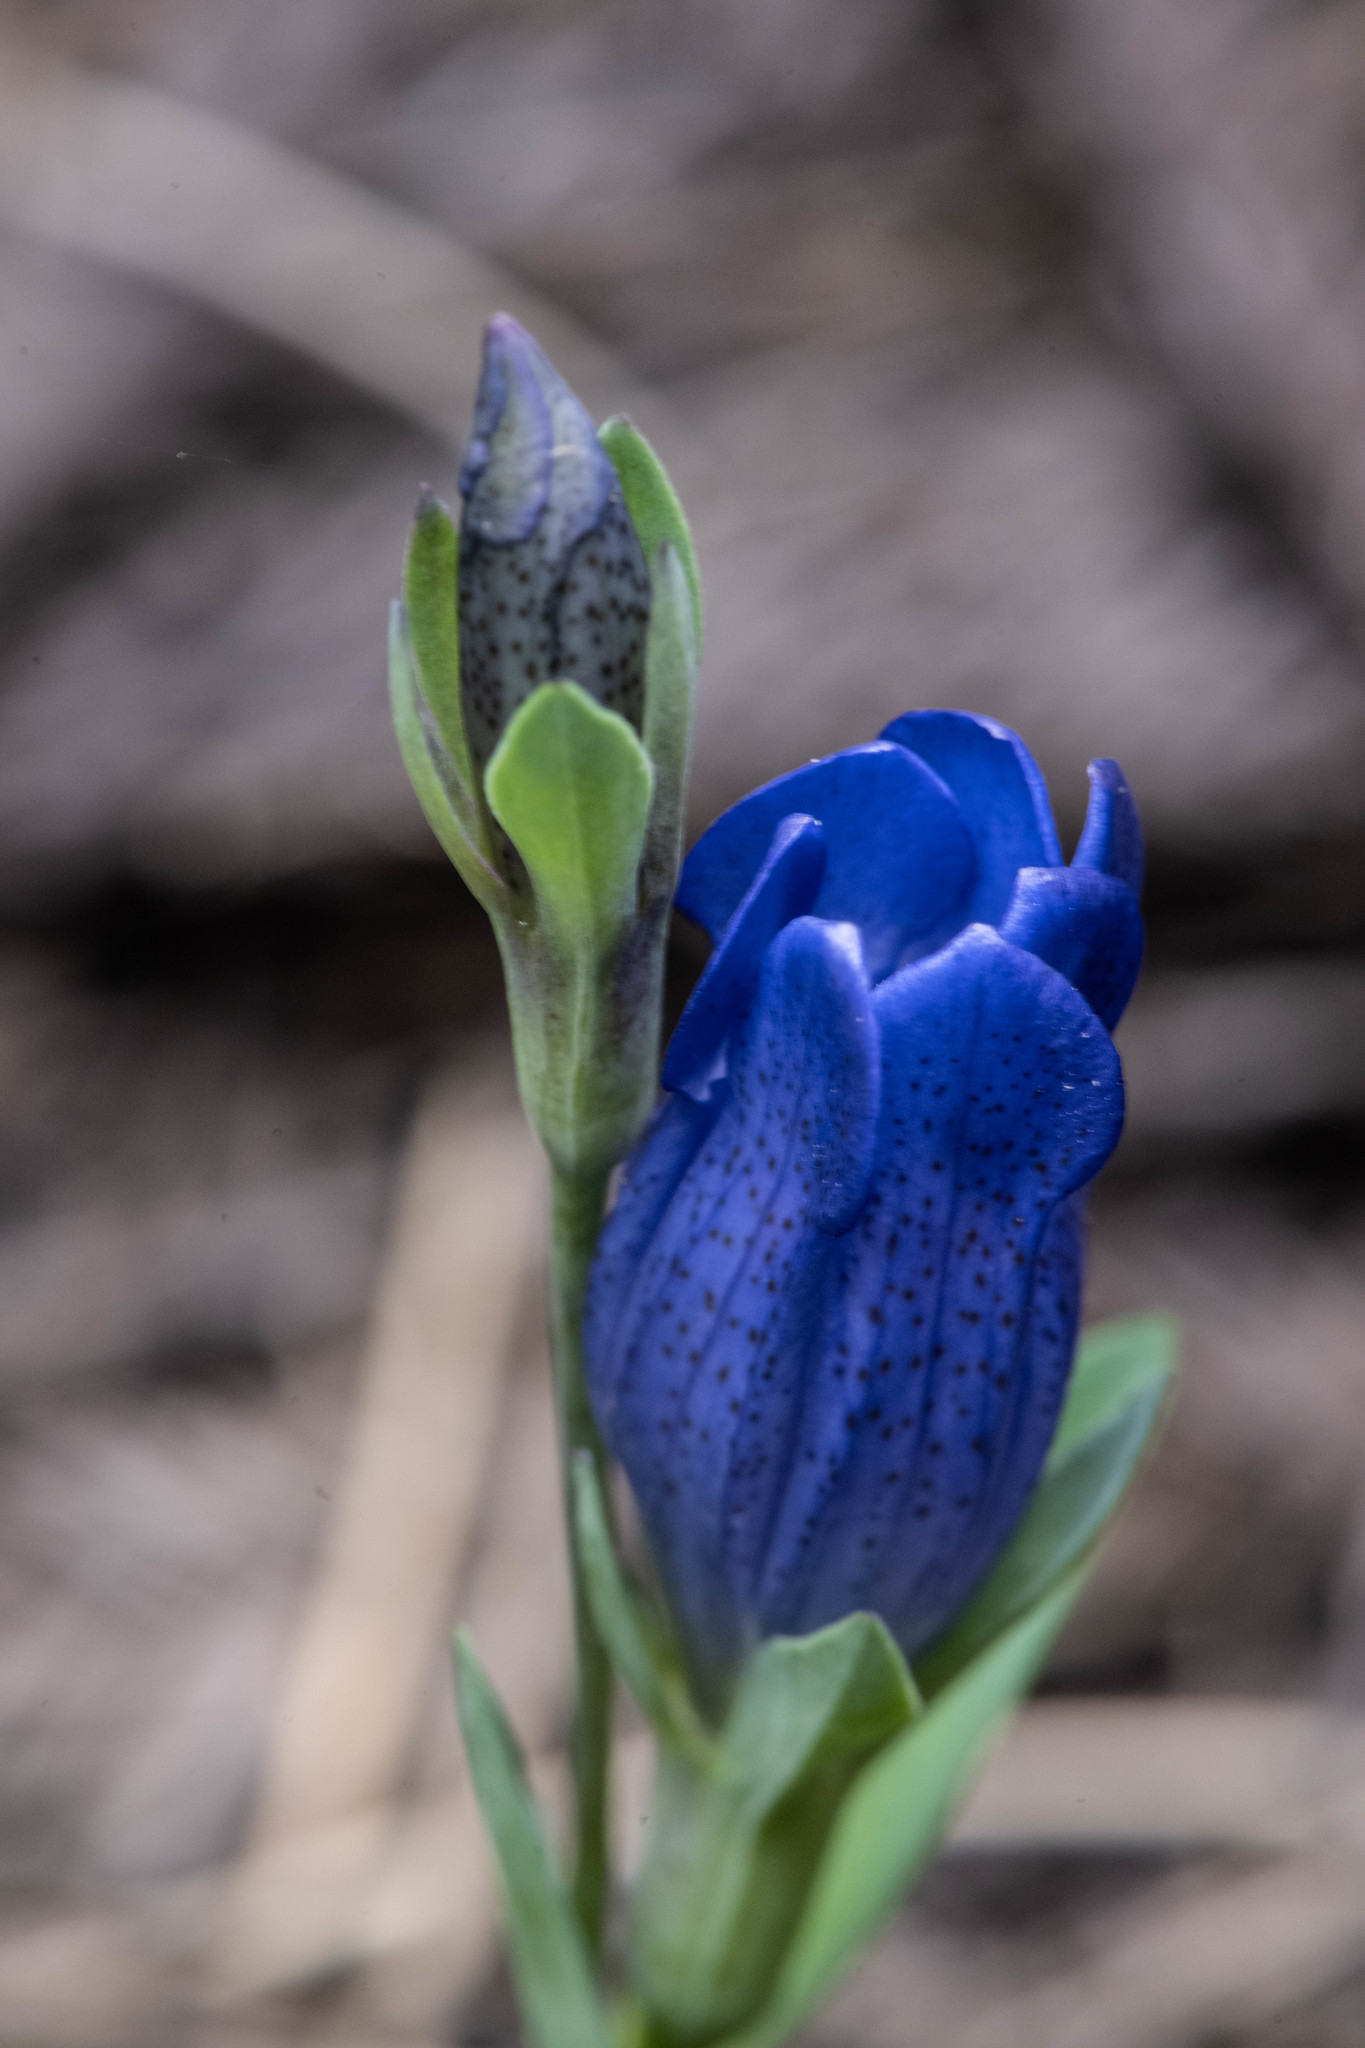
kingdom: Plantae
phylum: Tracheophyta
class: Magnoliopsida
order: Gentianales
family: Gentianaceae
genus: Gentiana
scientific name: Gentiana sceptrum
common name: Pacific gentian
